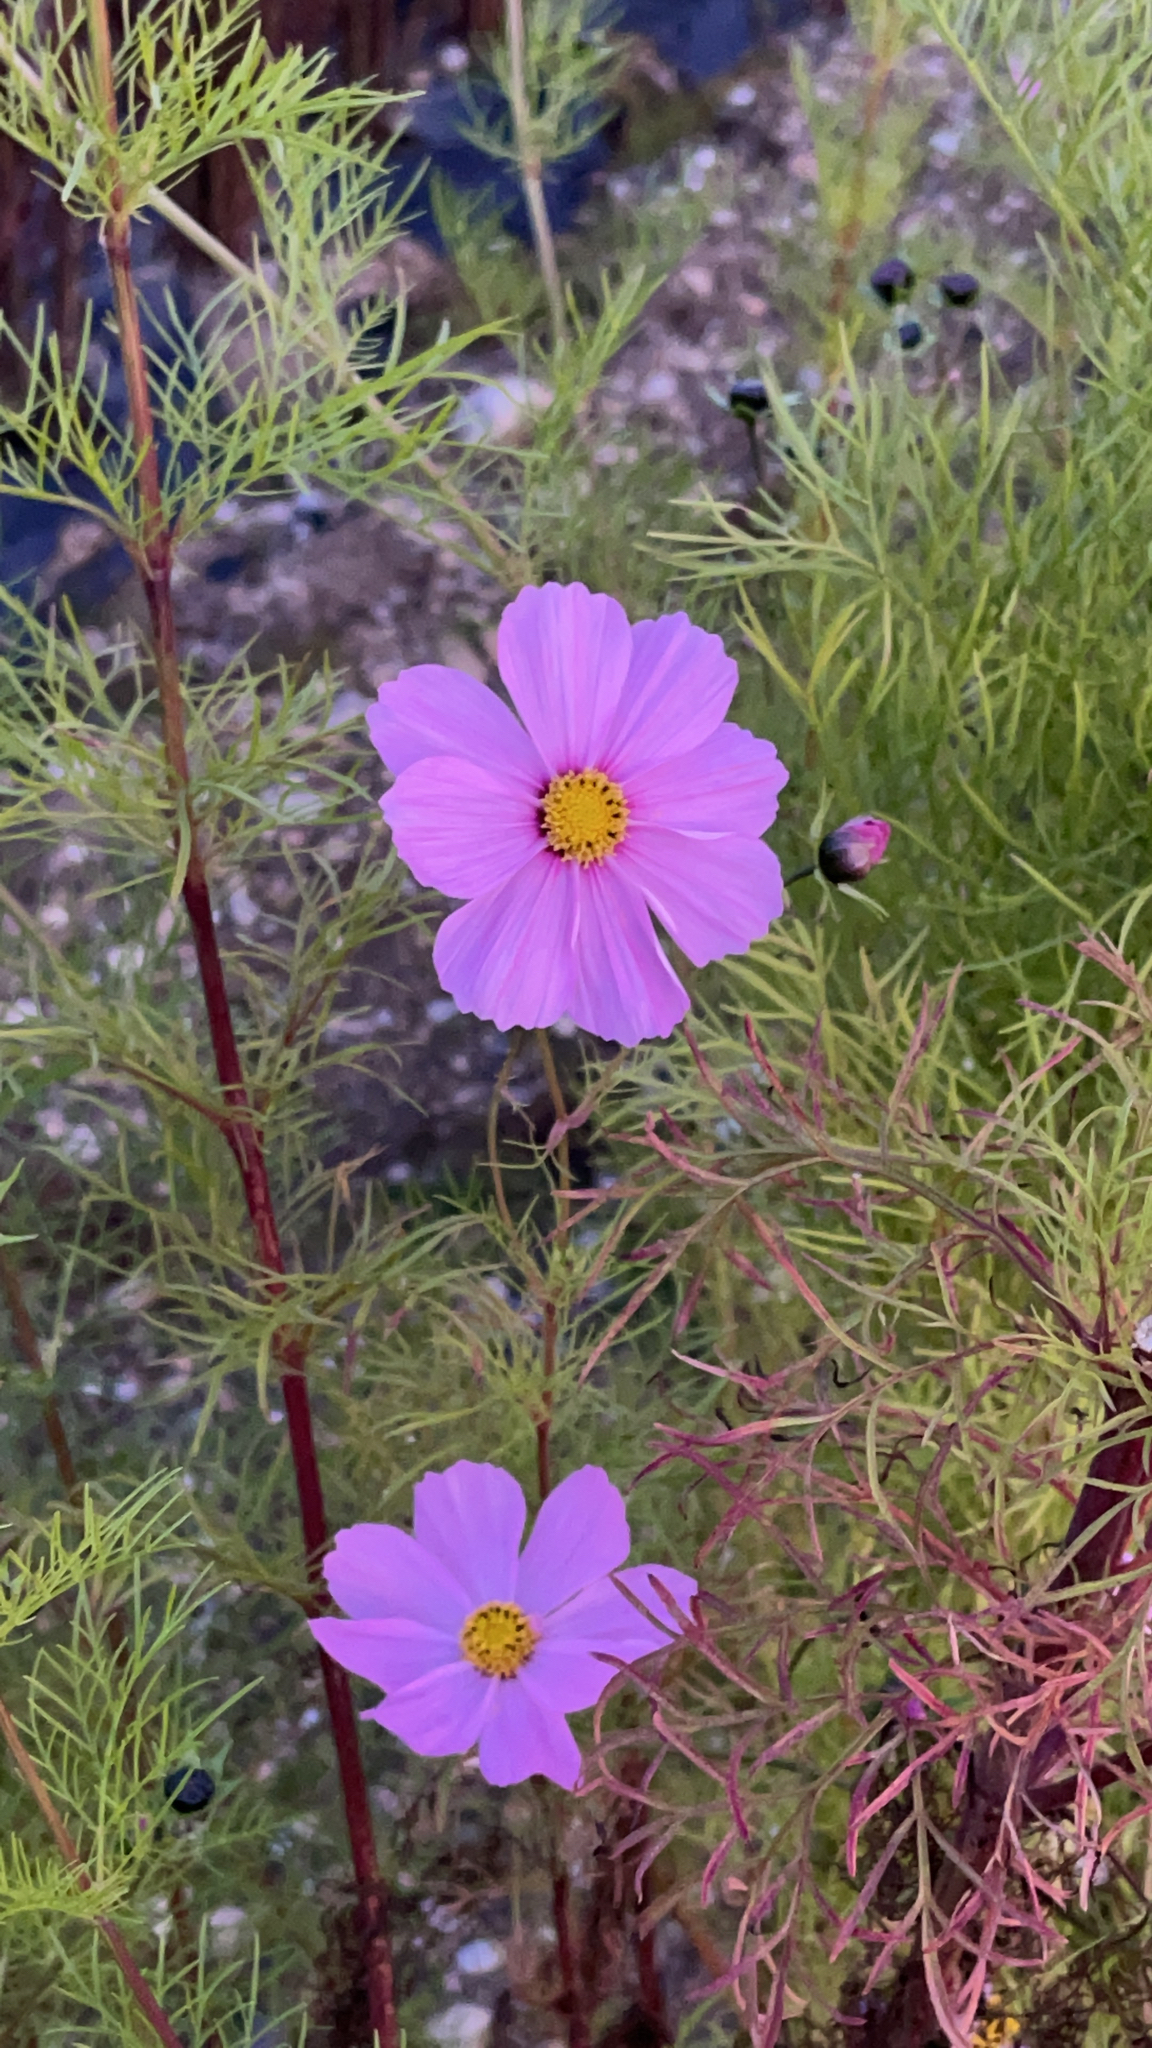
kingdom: Plantae
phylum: Tracheophyta
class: Magnoliopsida
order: Asterales
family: Asteraceae
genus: Cosmos
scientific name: Cosmos bipinnatus
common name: Garden cosmos
